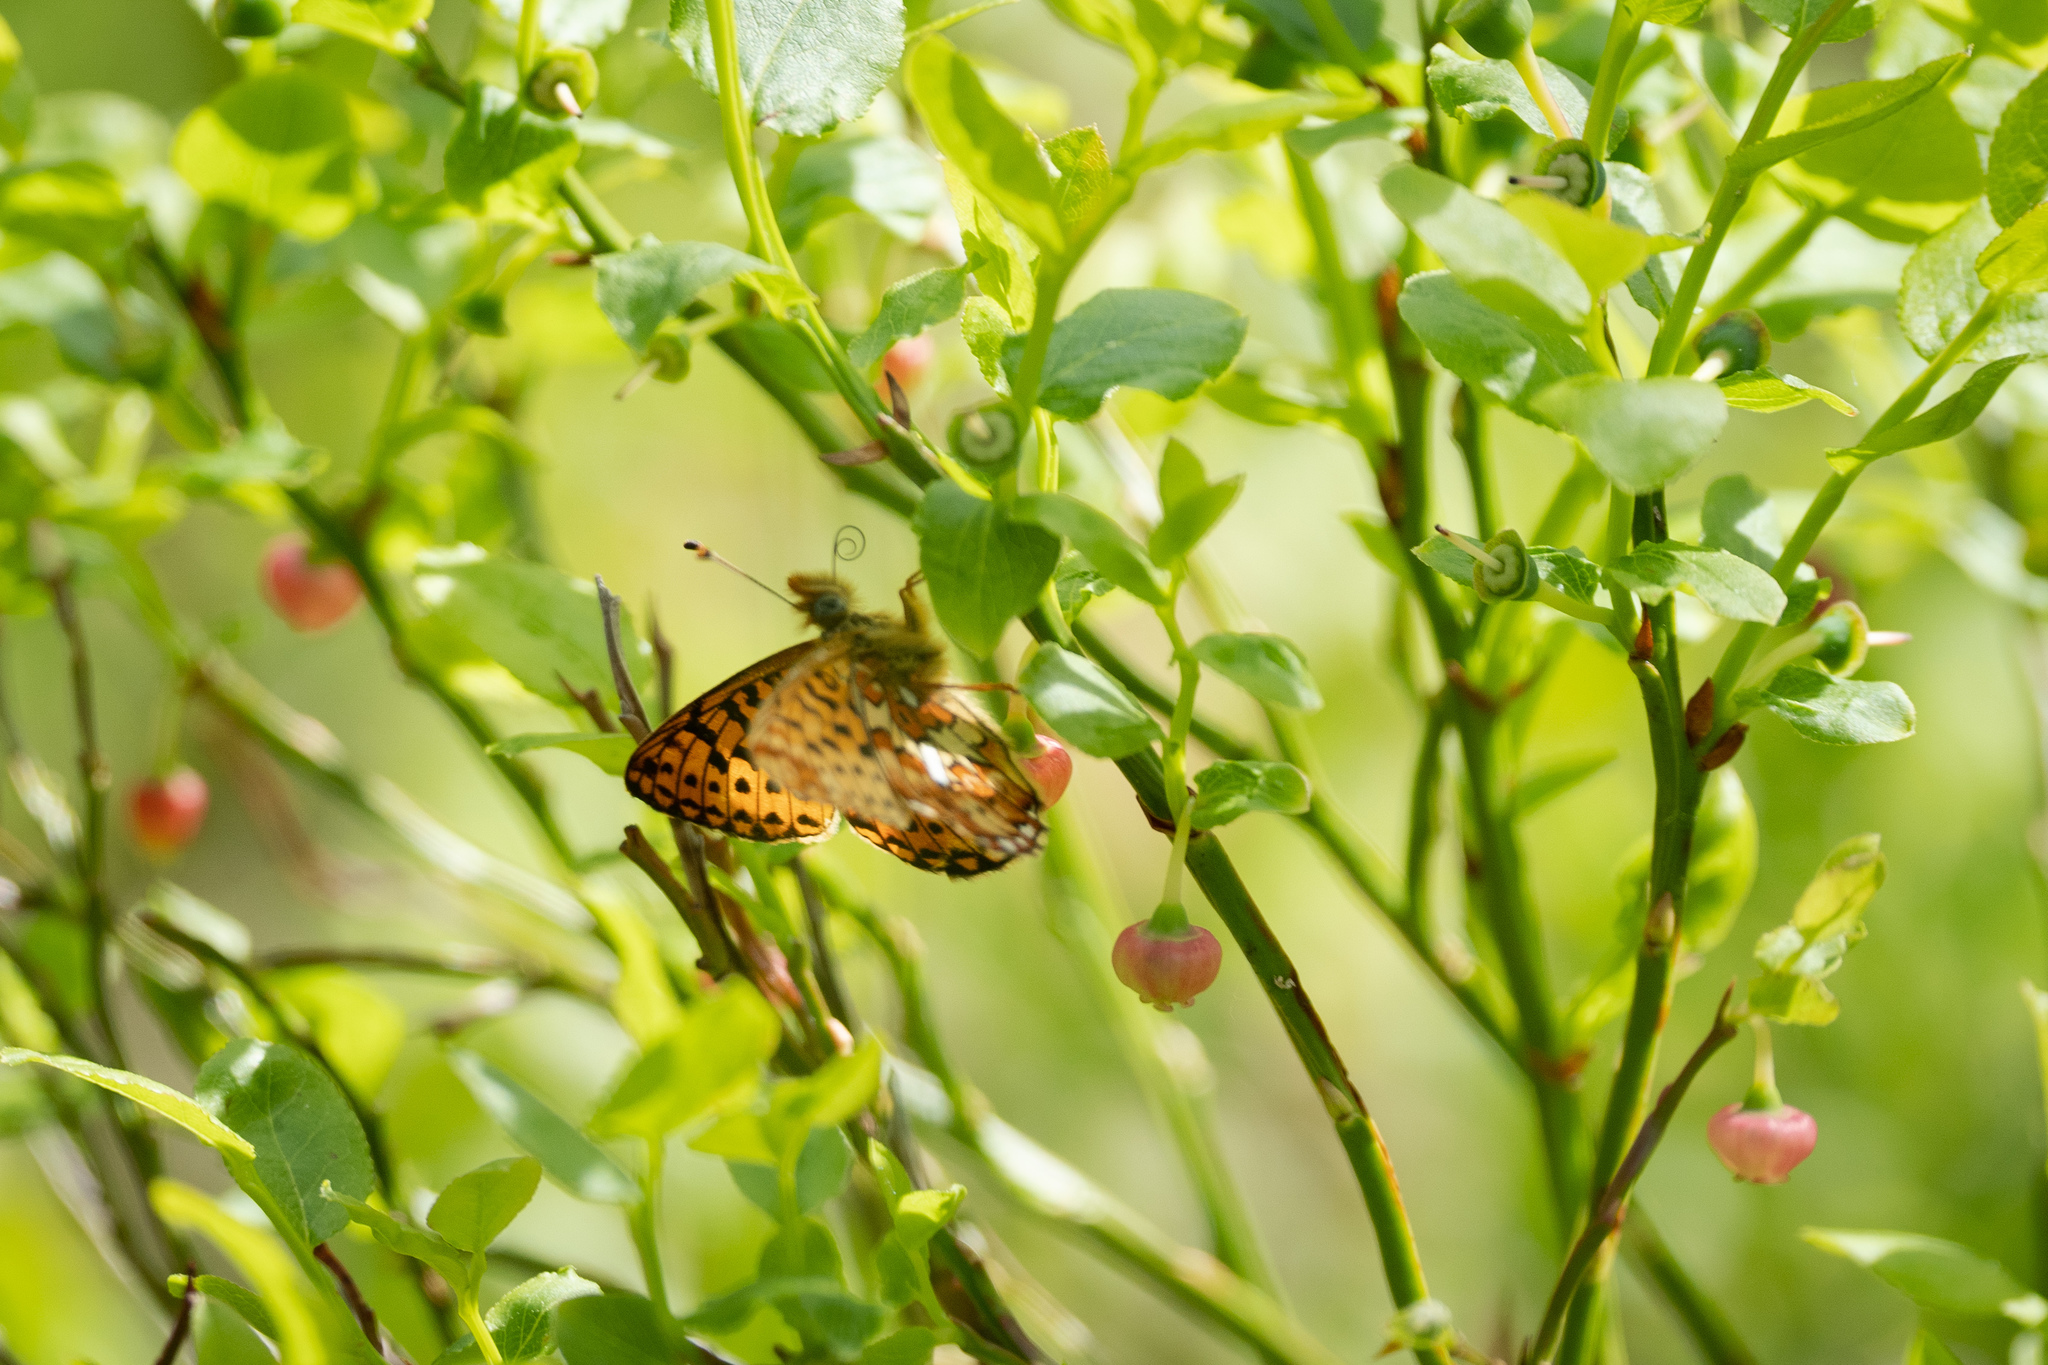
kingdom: Animalia
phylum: Arthropoda
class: Insecta
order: Lepidoptera
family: Nymphalidae
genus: Clossiana
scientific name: Clossiana euphrosyne
